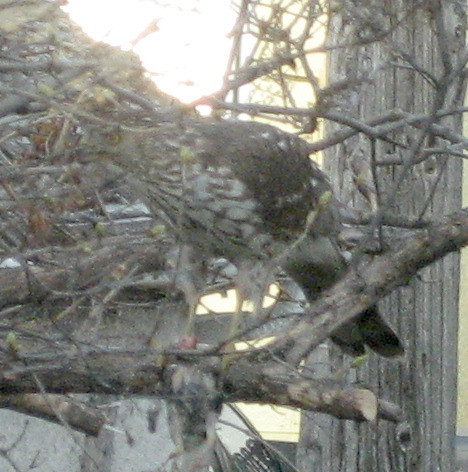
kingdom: Animalia
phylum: Chordata
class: Aves
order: Accipitriformes
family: Accipitridae
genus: Accipiter
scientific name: Accipiter cooperii
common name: Cooper's hawk
